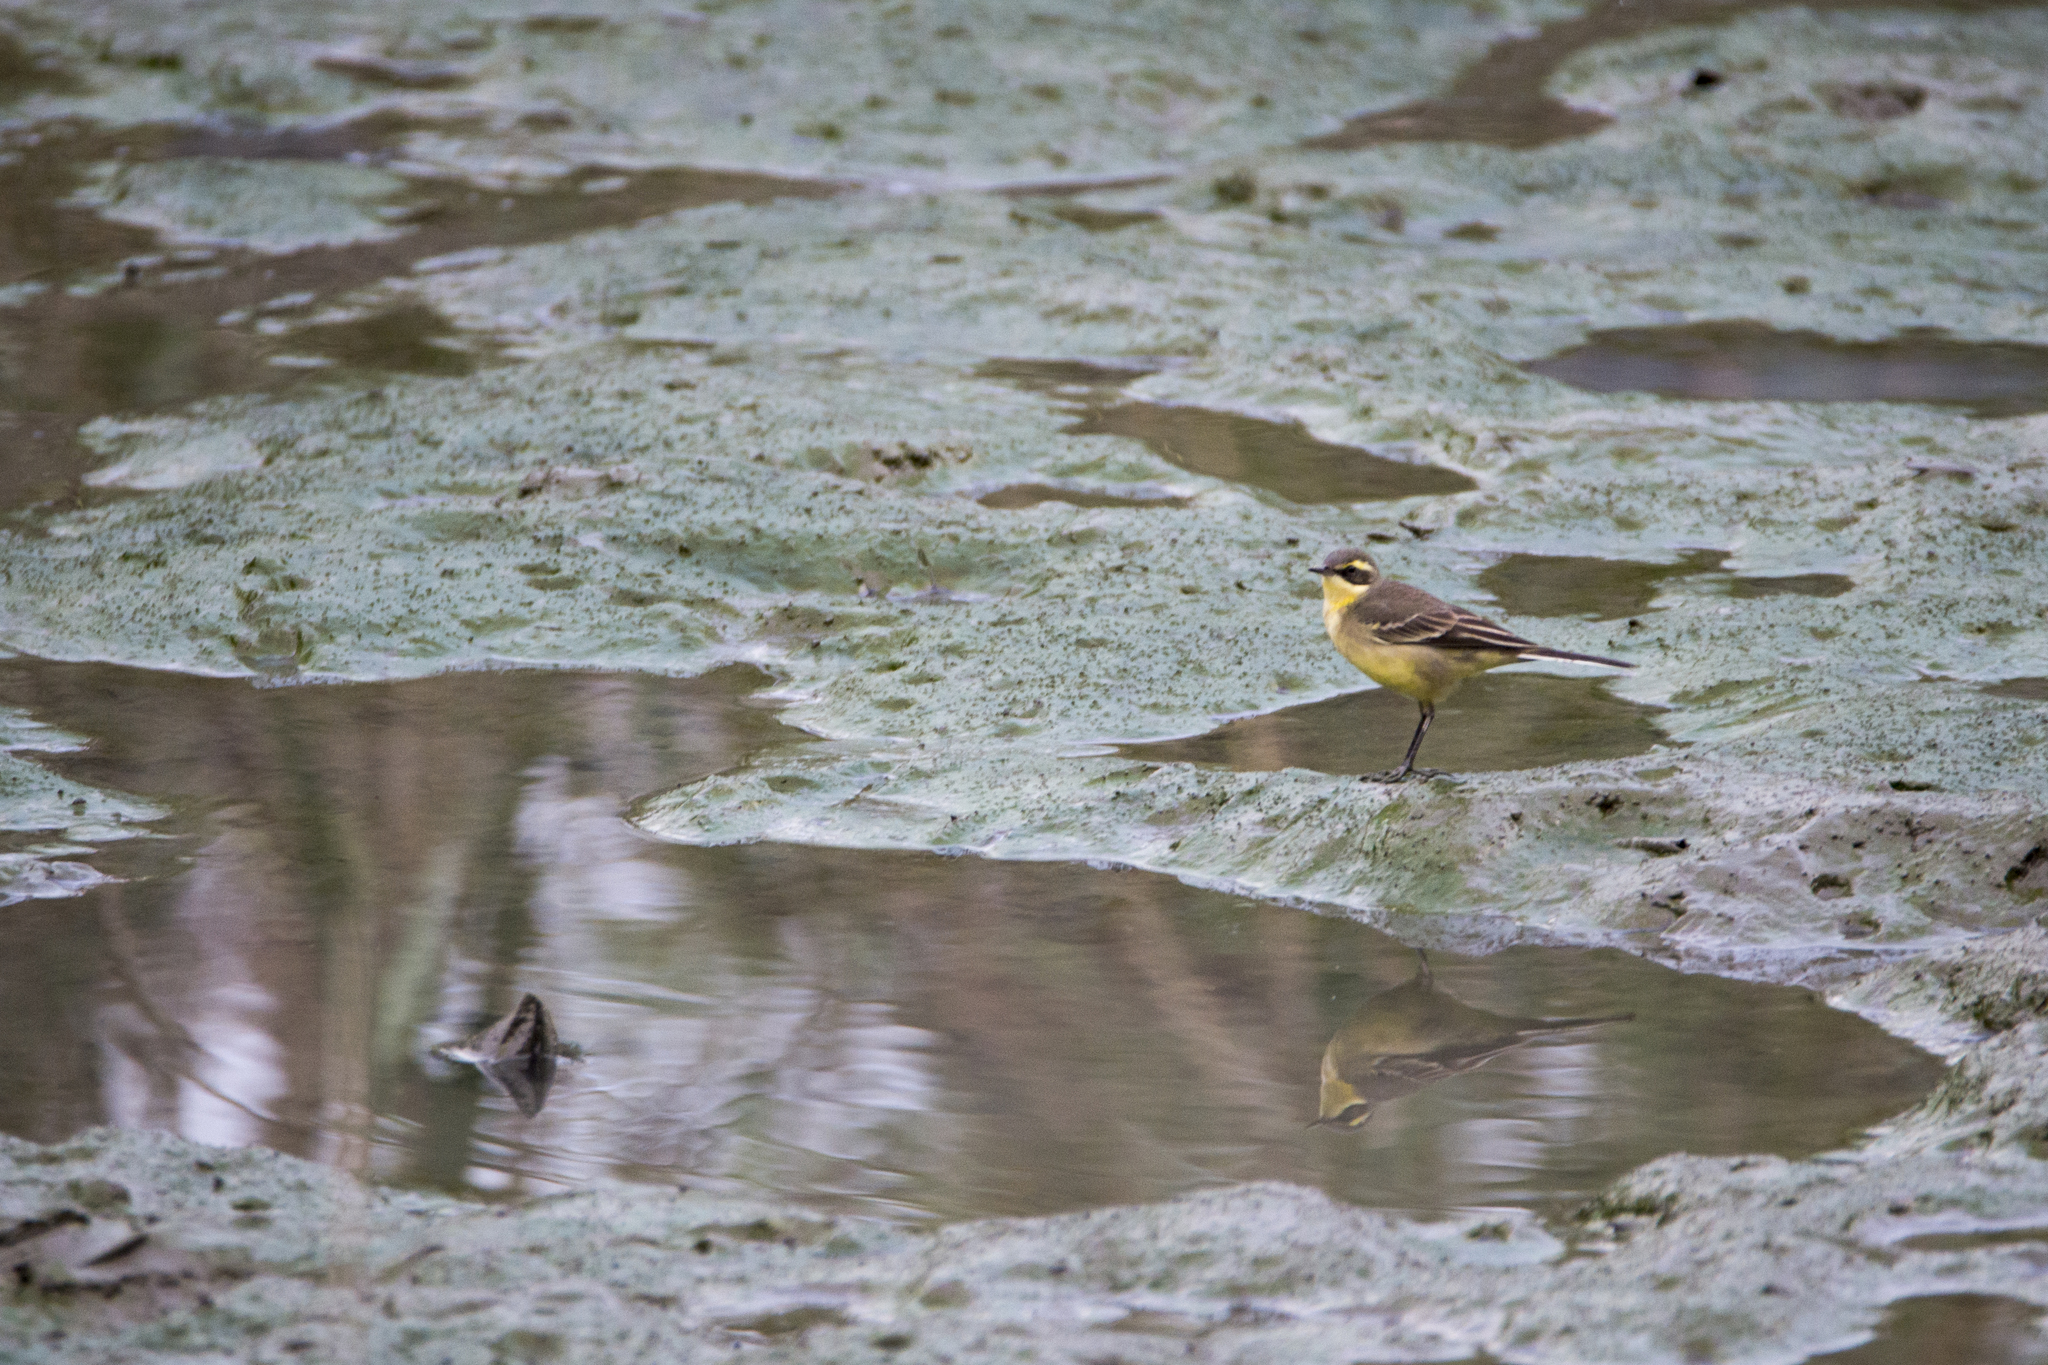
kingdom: Animalia
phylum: Chordata
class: Aves
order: Passeriformes
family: Motacillidae
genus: Motacilla
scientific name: Motacilla tschutschensis
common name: Eastern yellow wagtail
